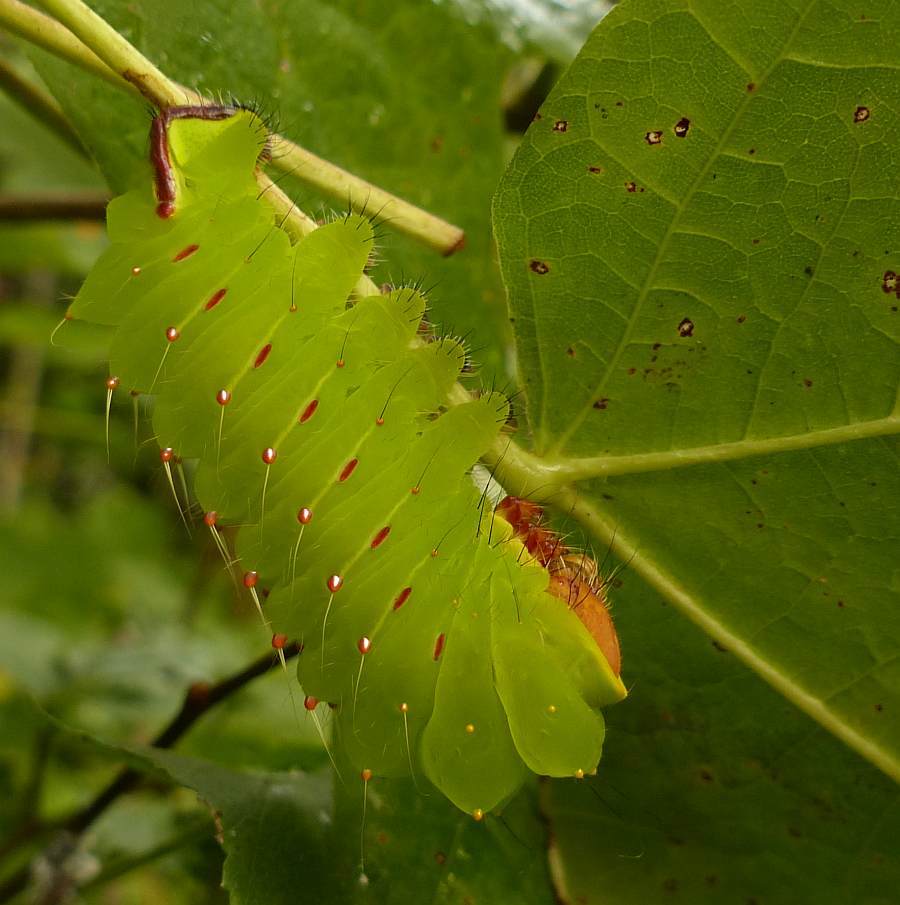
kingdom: Animalia
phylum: Arthropoda
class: Insecta
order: Lepidoptera
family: Saturniidae
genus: Antheraea
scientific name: Antheraea polyphemus
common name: Polyphemus moth
